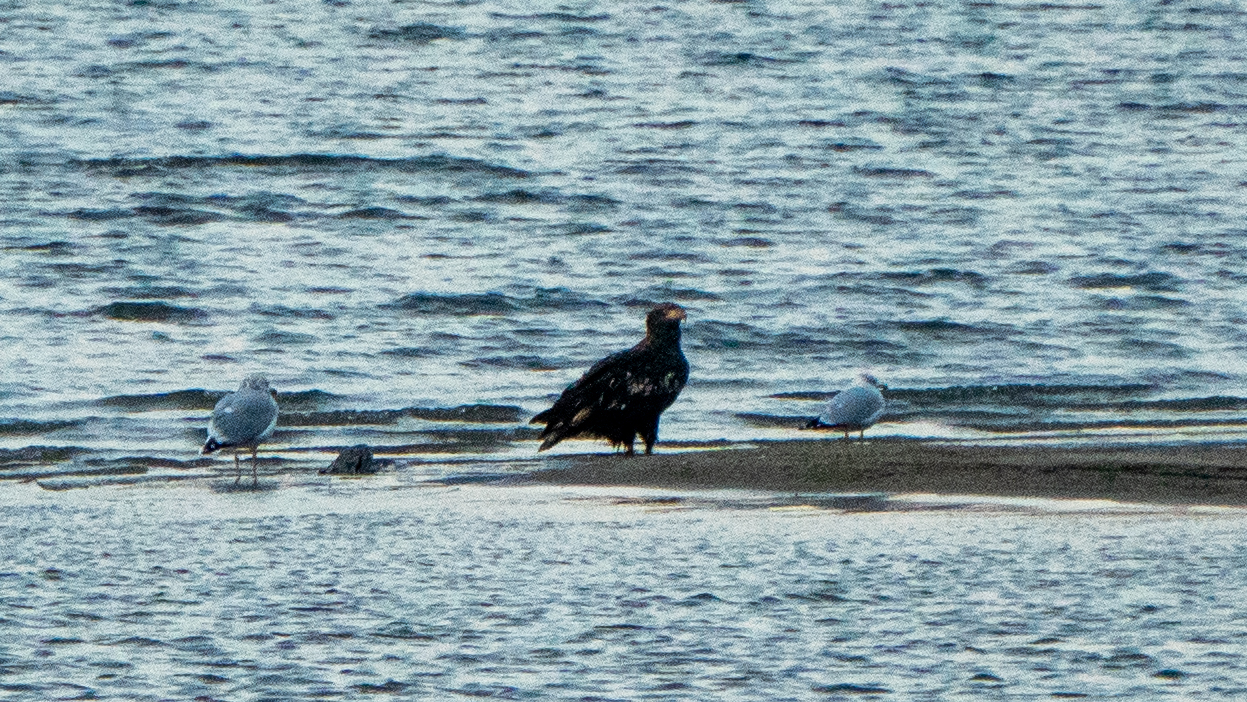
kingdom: Animalia
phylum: Chordata
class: Aves
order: Accipitriformes
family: Accipitridae
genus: Haliaeetus
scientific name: Haliaeetus leucocephalus
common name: Bald eagle
